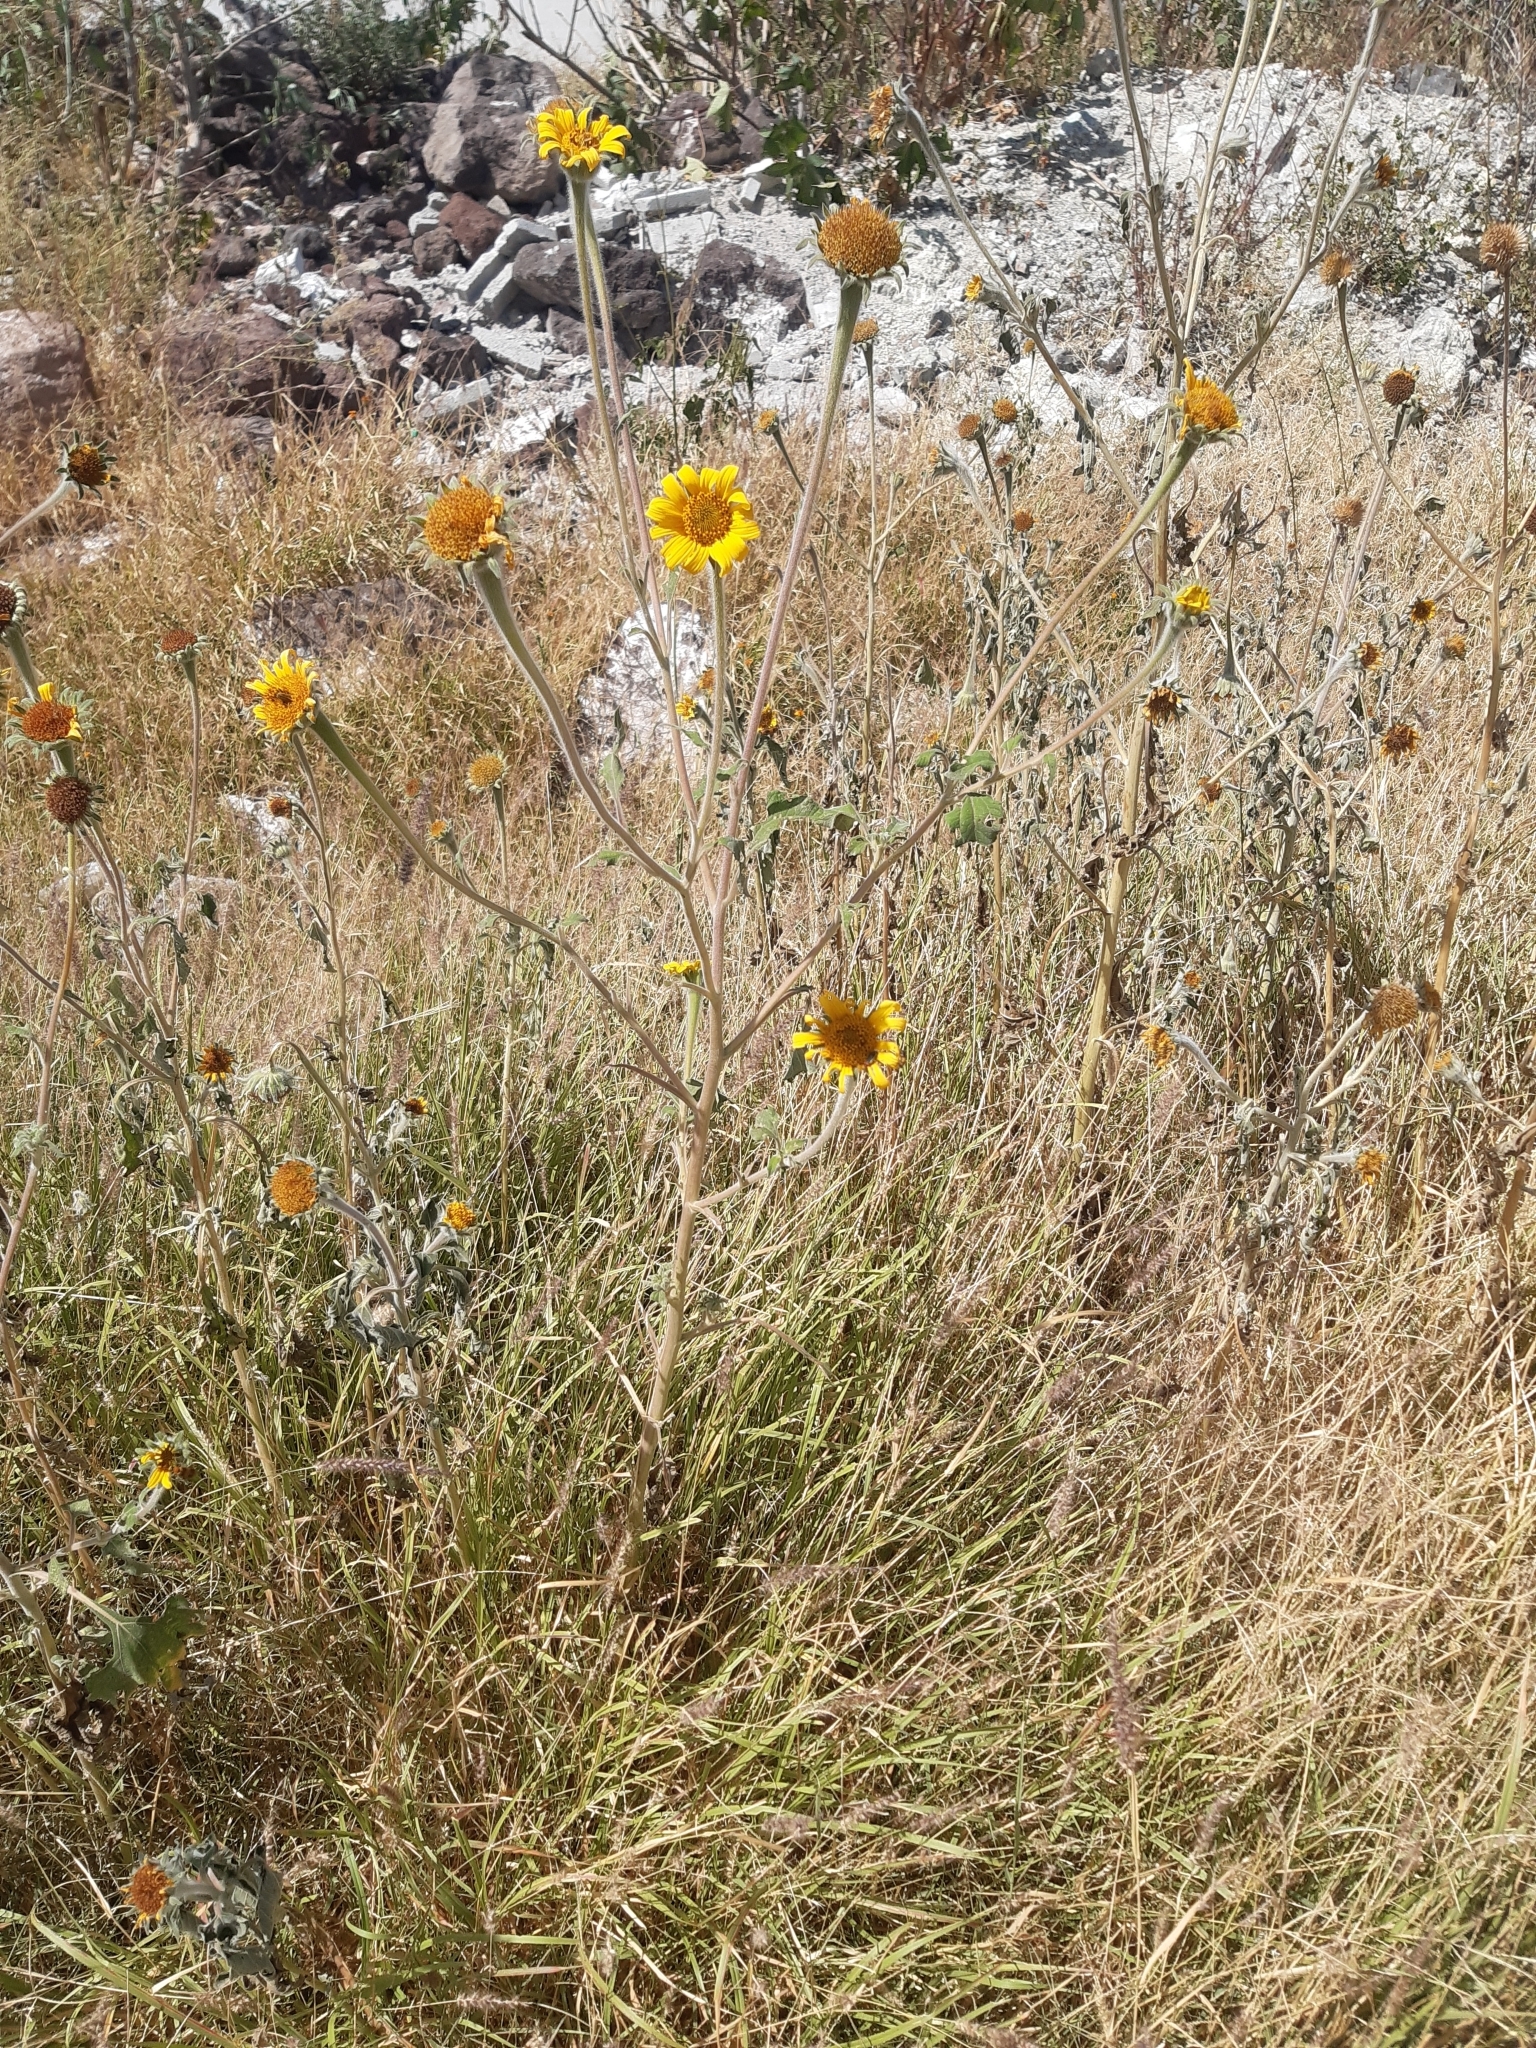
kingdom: Plantae
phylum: Tracheophyta
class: Magnoliopsida
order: Asterales
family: Asteraceae
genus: Tithonia
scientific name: Tithonia tubaeformis
